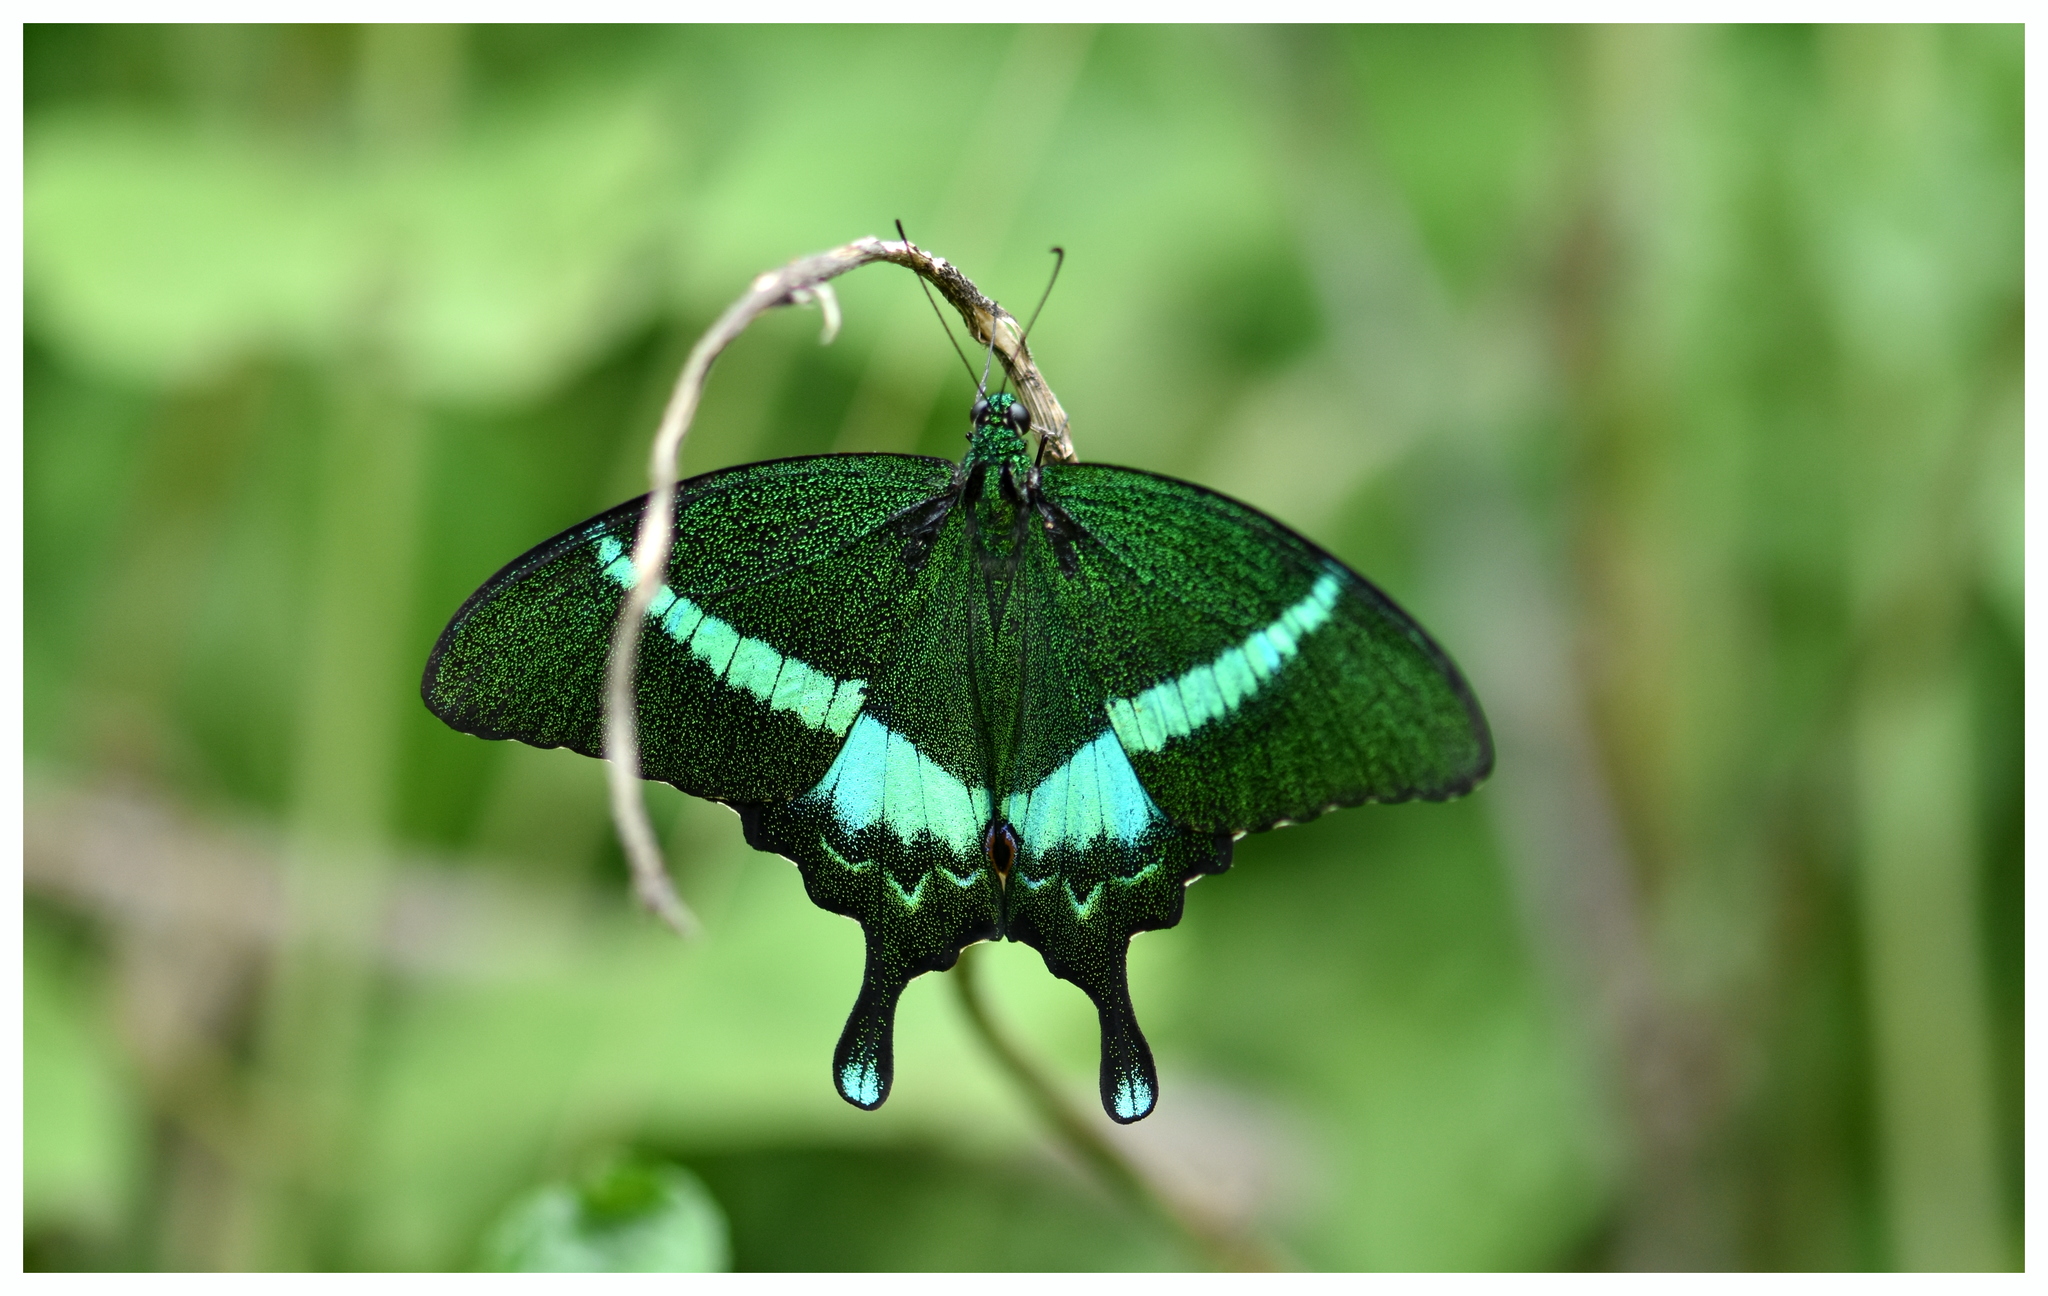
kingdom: Animalia
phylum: Arthropoda
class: Insecta
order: Lepidoptera
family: Papilionidae
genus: Papilio
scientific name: Papilio crino
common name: Common banded peacock
